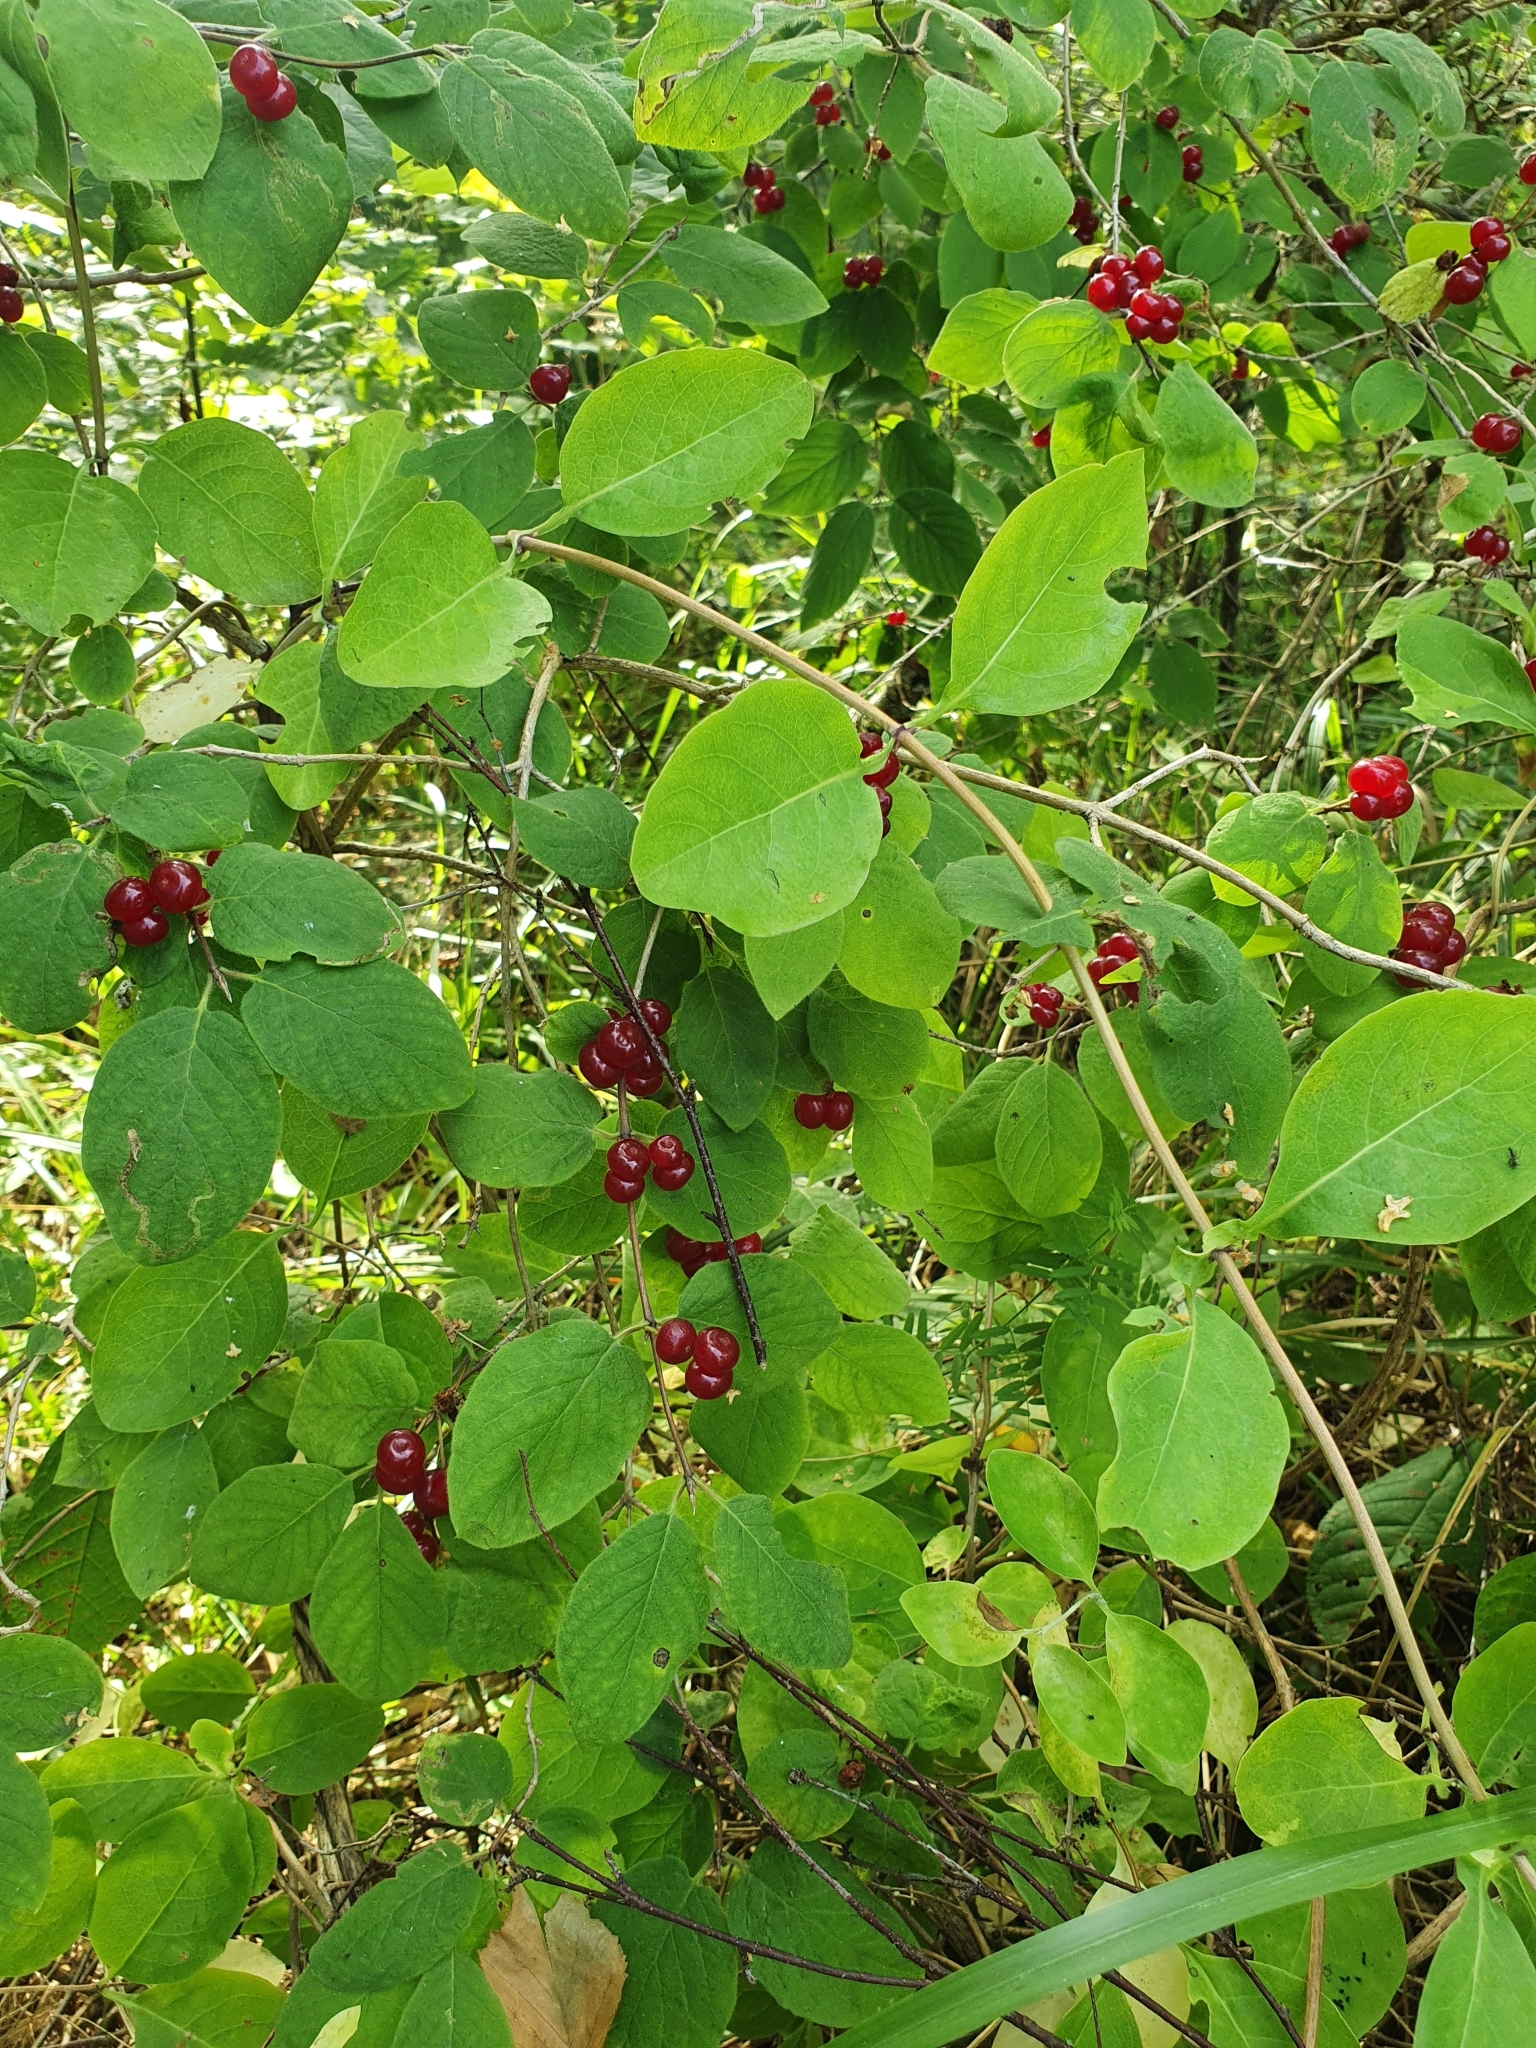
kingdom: Plantae
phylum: Tracheophyta
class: Magnoliopsida
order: Dipsacales
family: Caprifoliaceae
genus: Lonicera
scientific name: Lonicera xylosteum
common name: Fly honeysuckle
